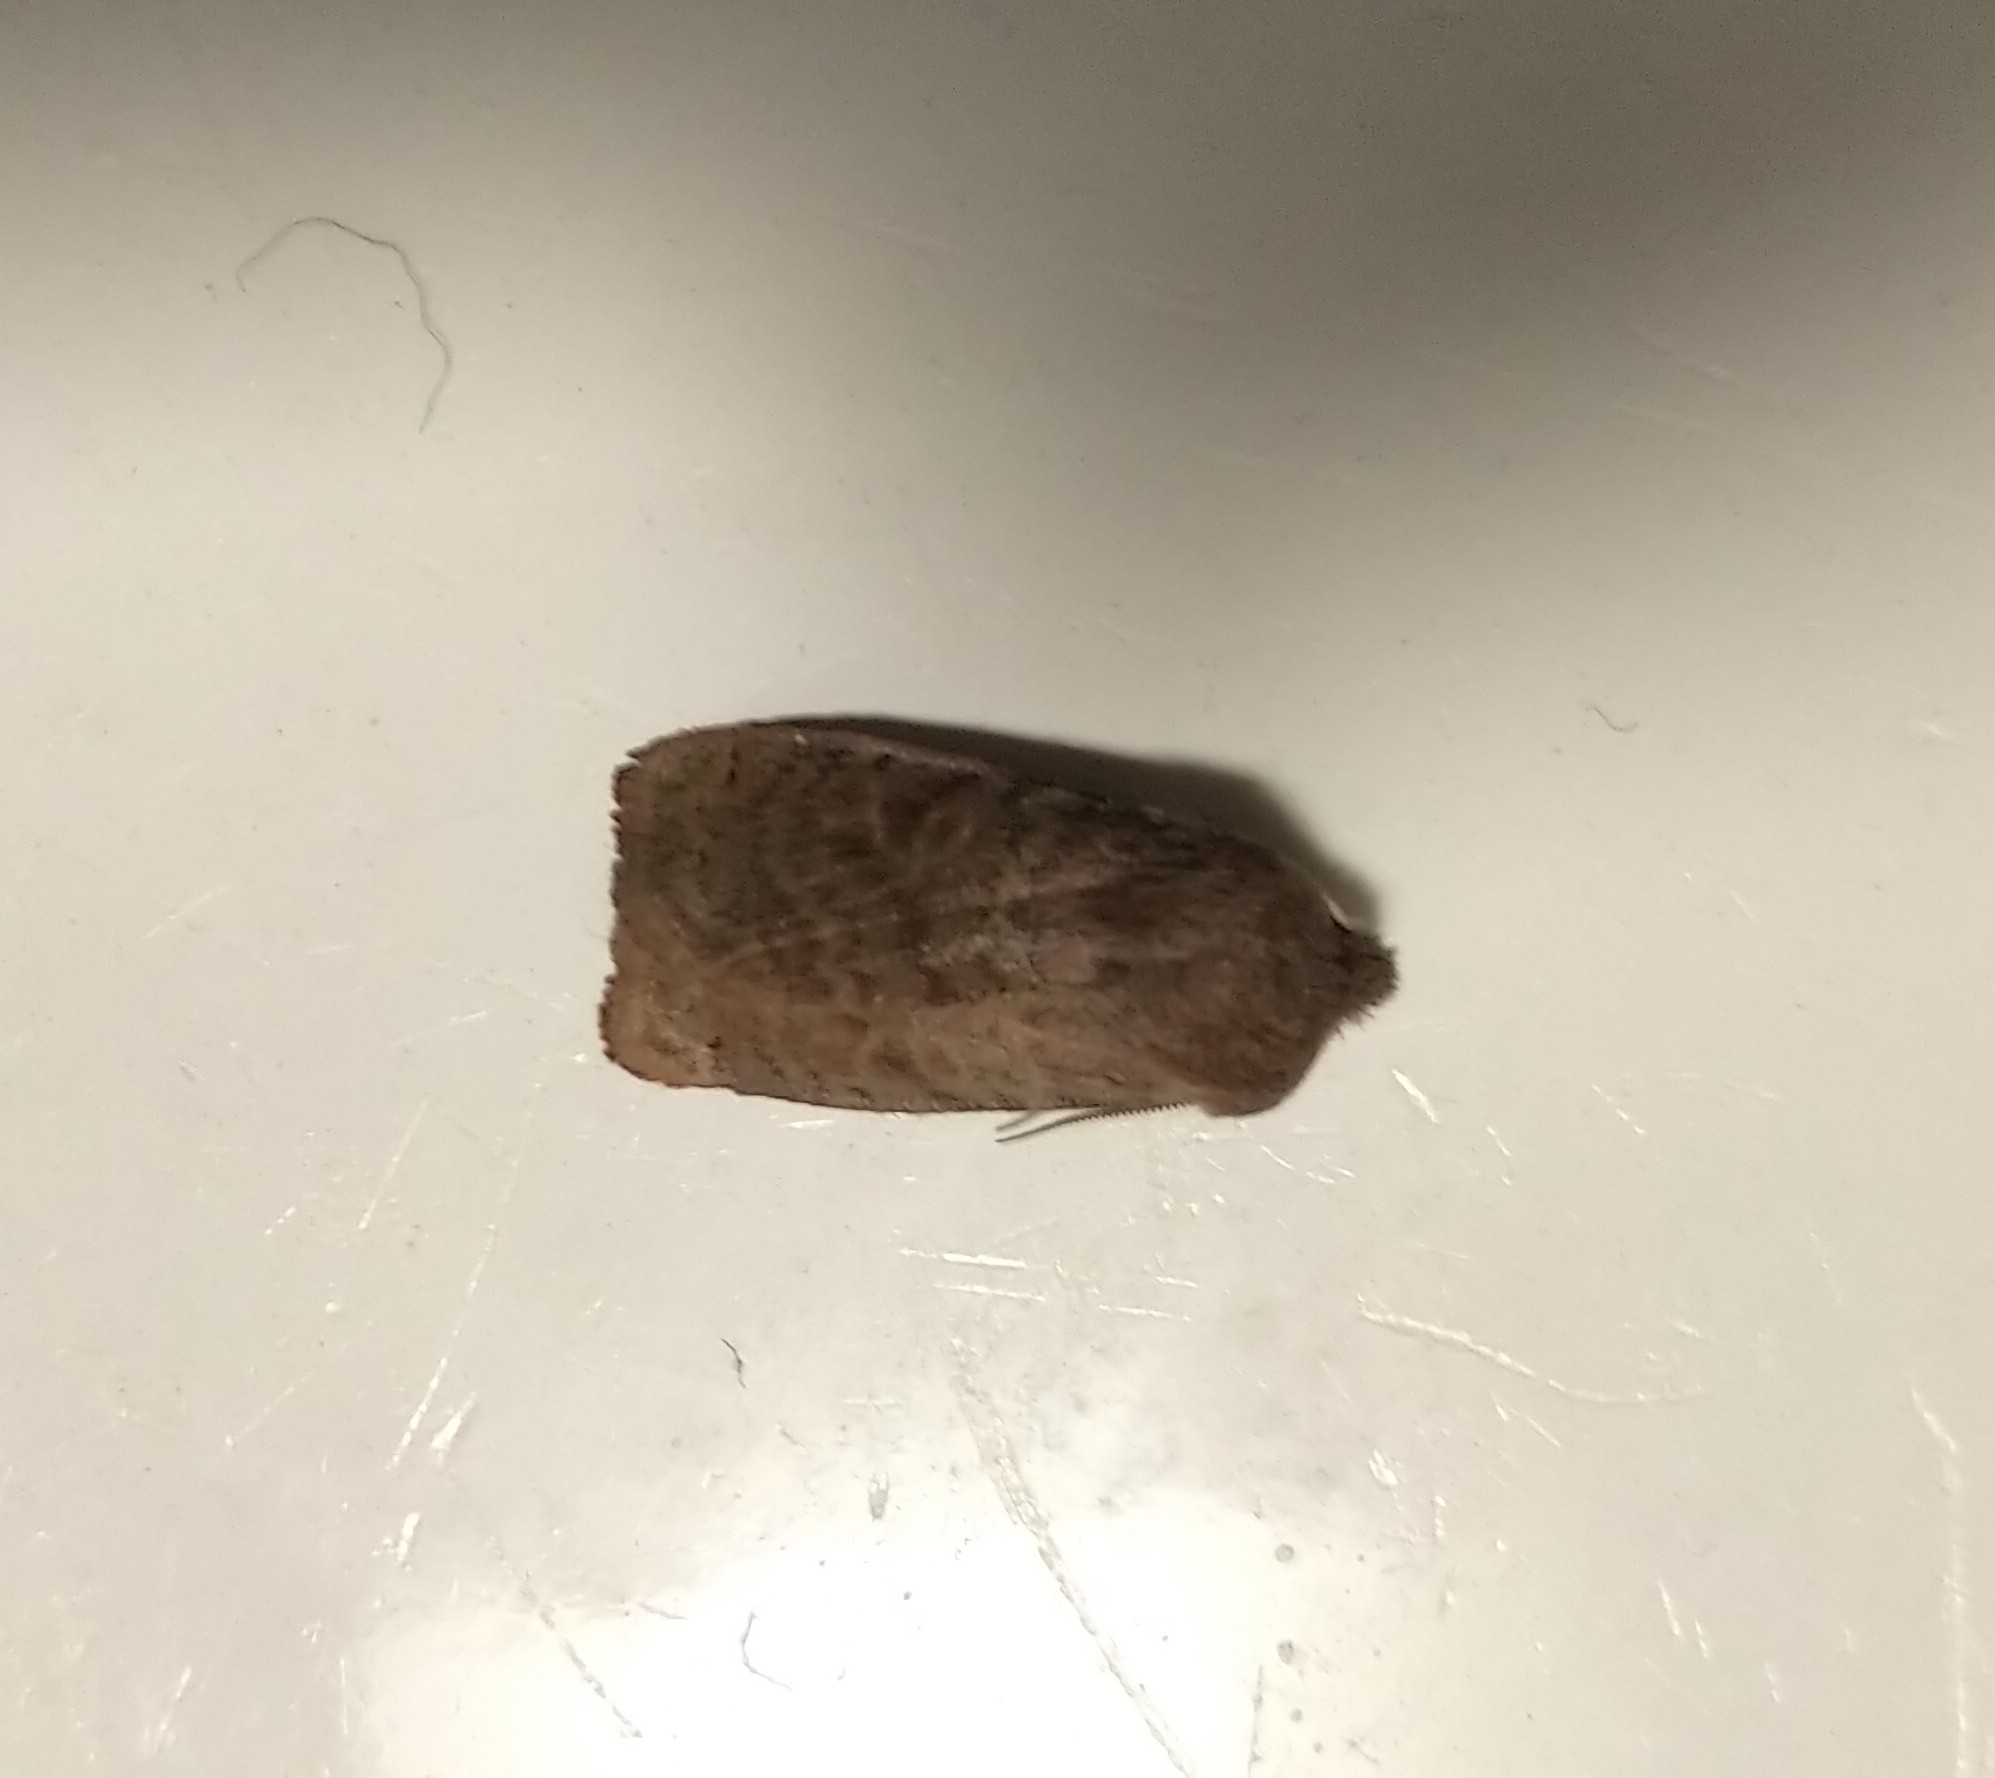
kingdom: Animalia
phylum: Arthropoda
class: Insecta
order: Lepidoptera
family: Noctuidae
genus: Homoglaea
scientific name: Homoglaea hircina
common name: Goat sallow
